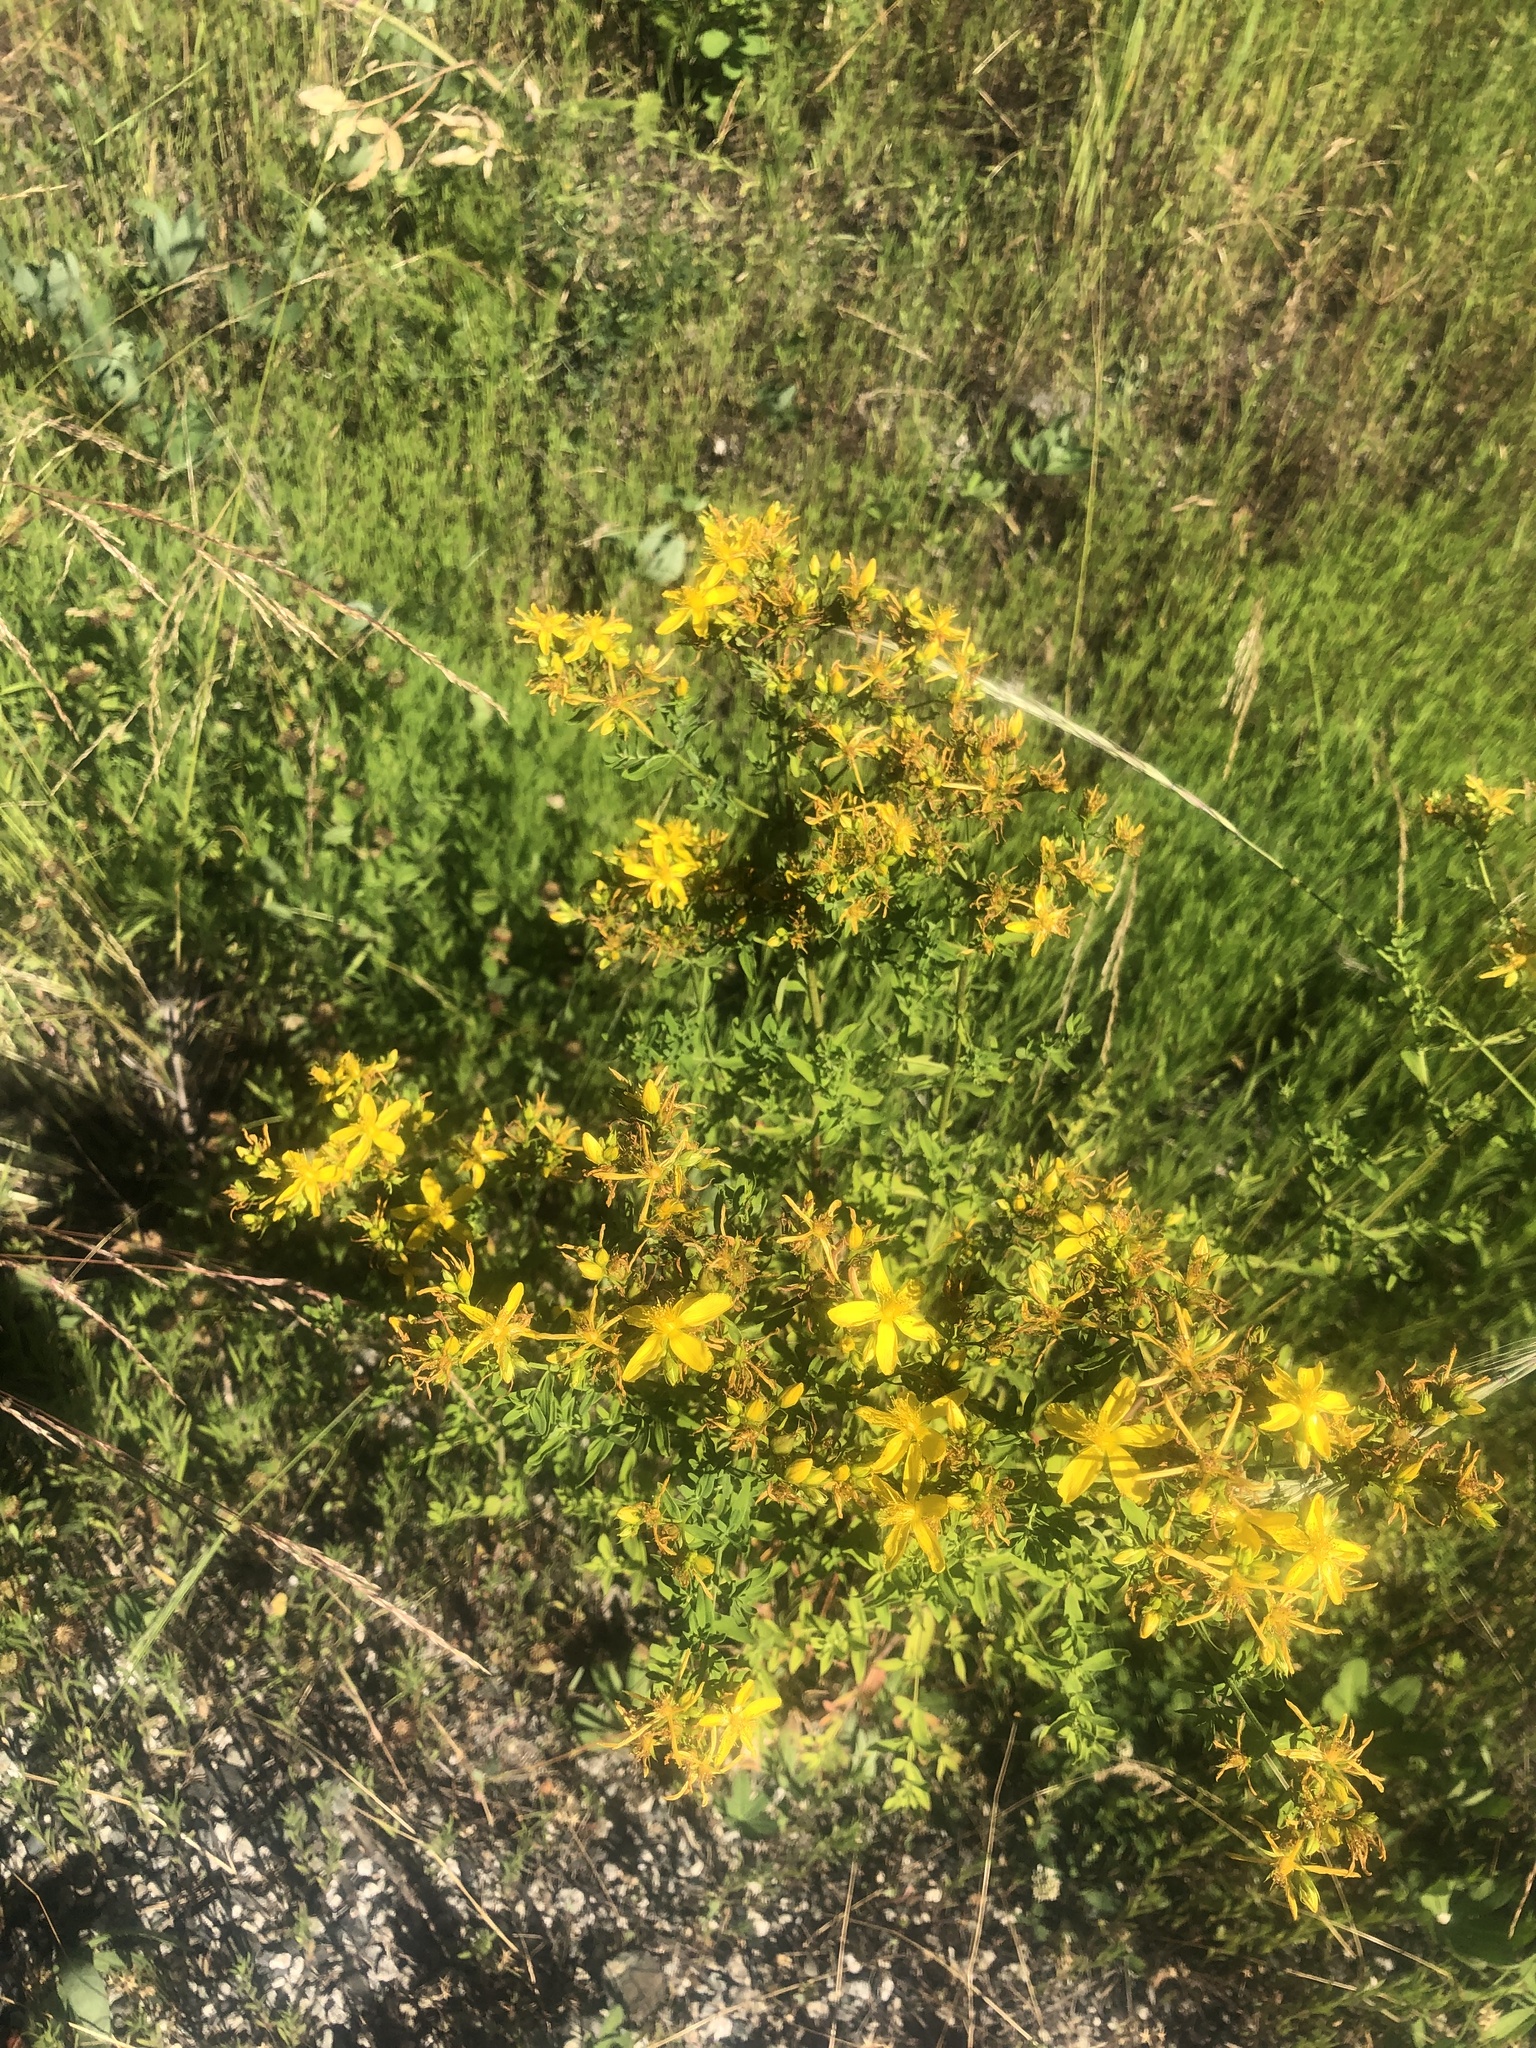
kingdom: Plantae
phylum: Tracheophyta
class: Magnoliopsida
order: Malpighiales
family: Hypericaceae
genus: Hypericum
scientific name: Hypericum perforatum
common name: Common st. johnswort
